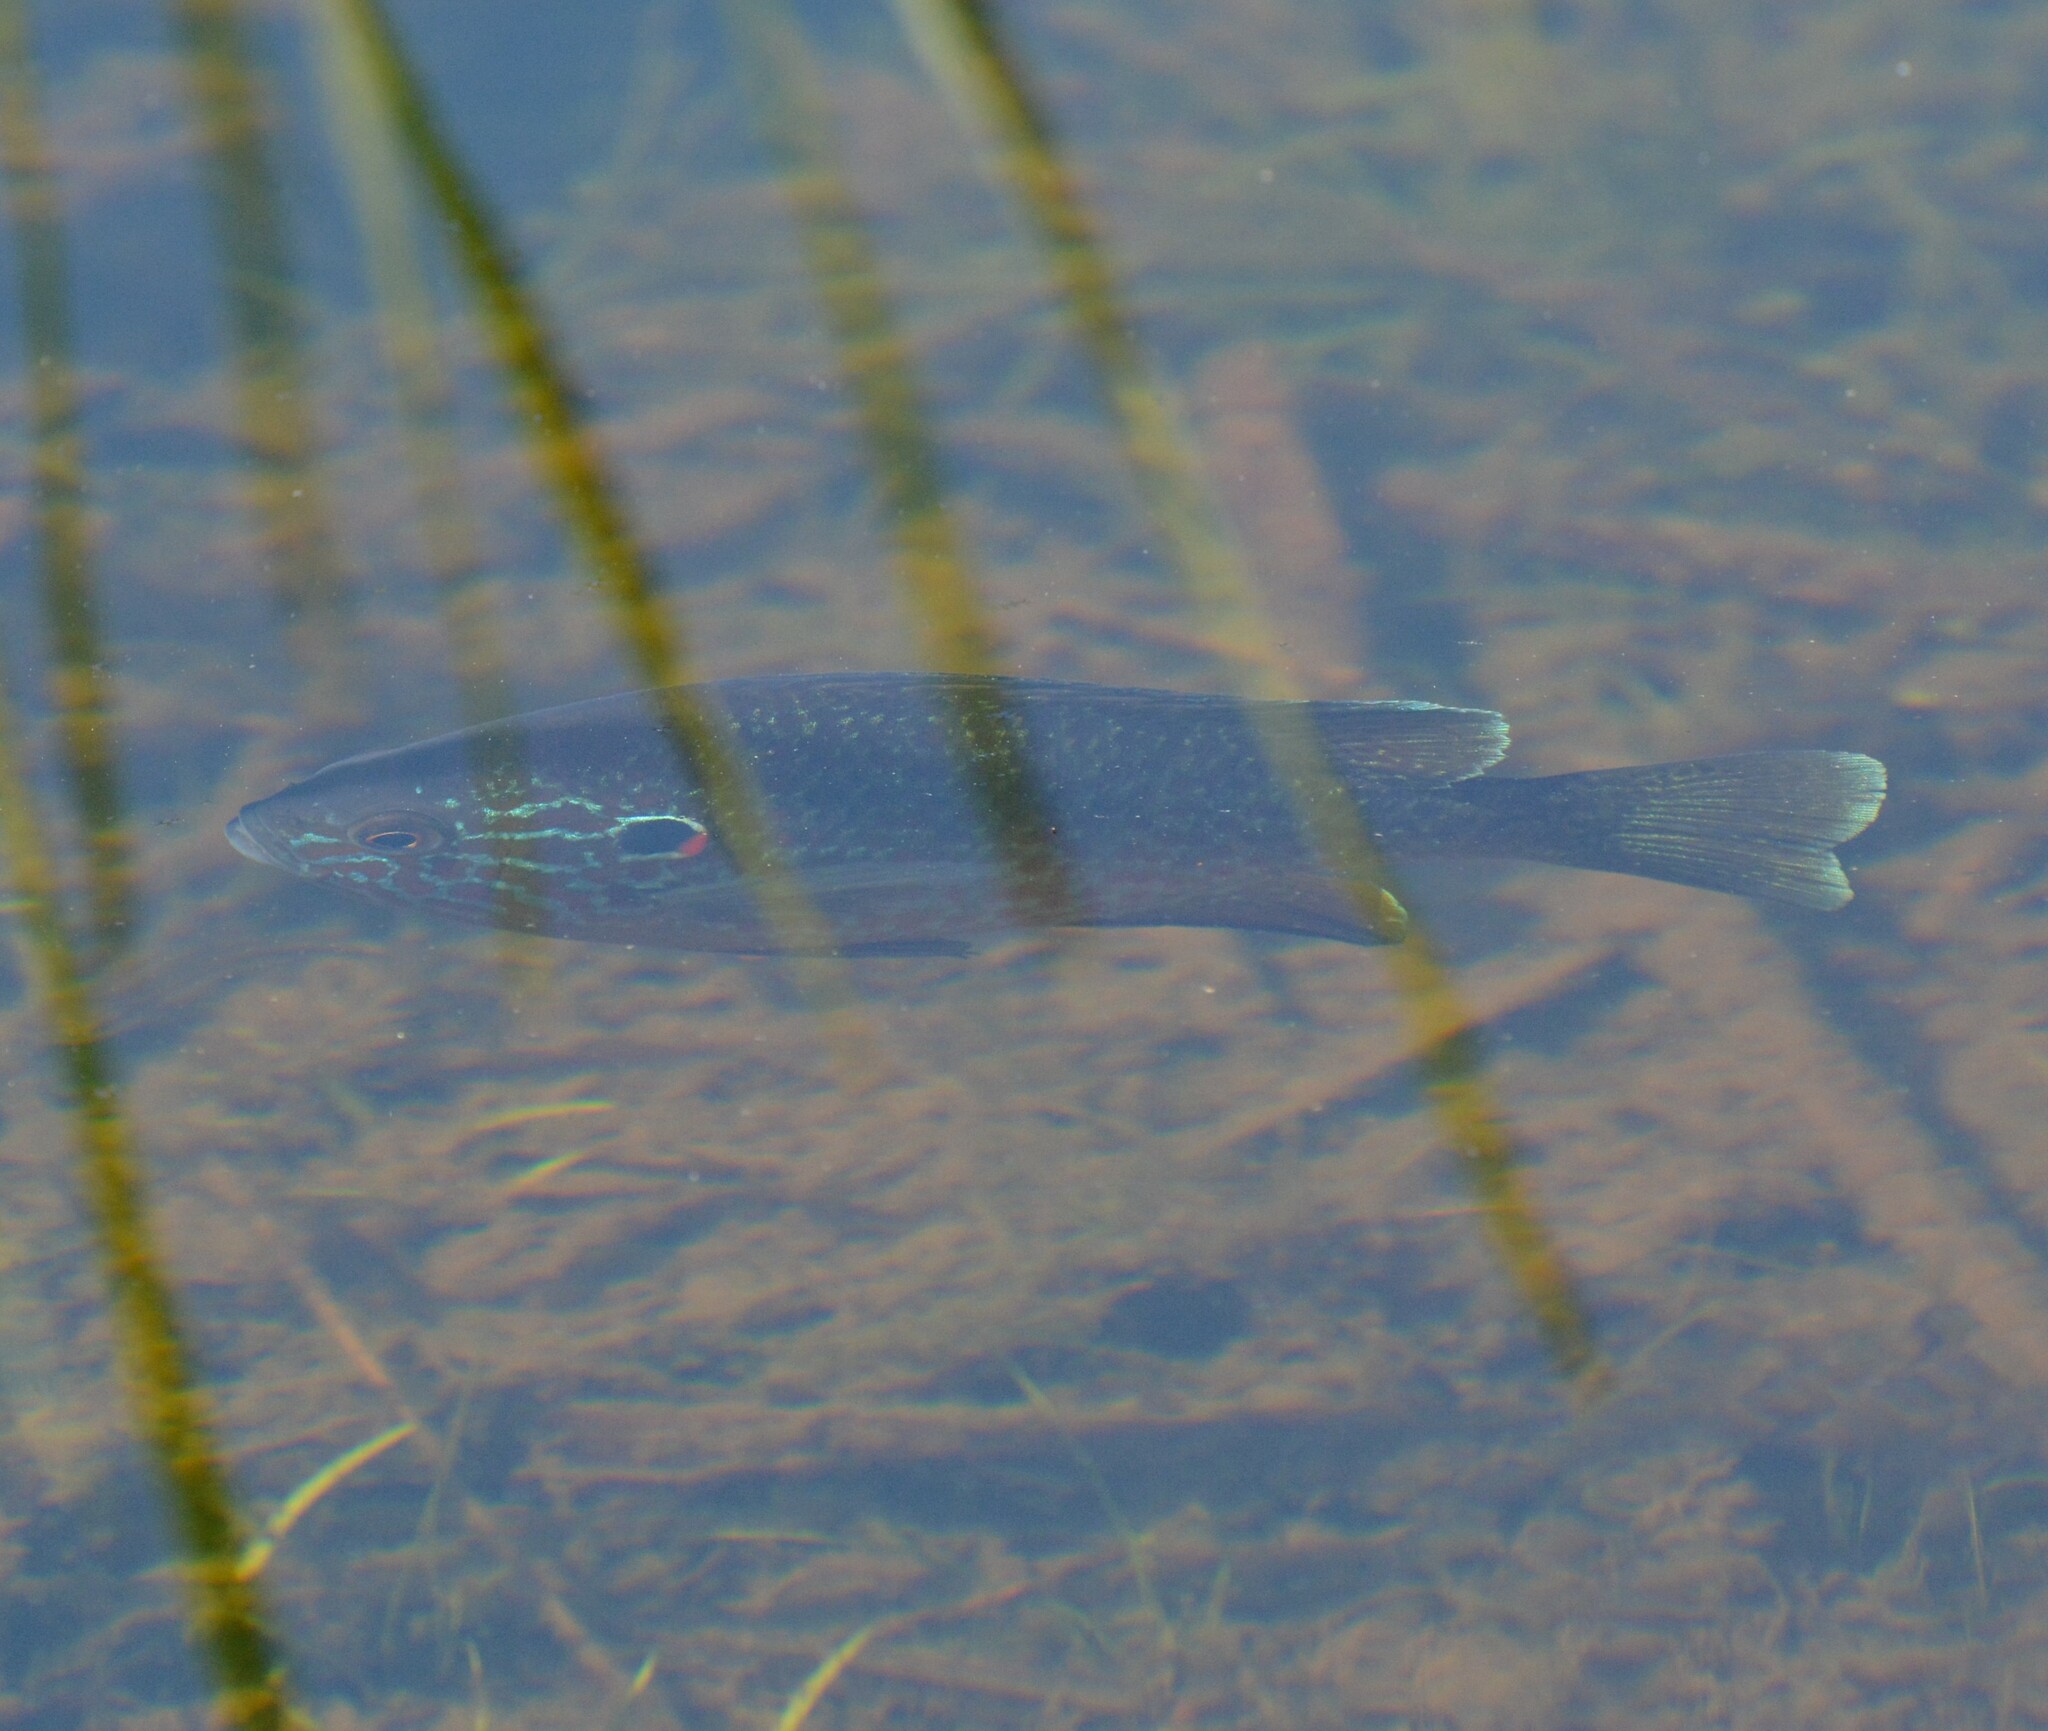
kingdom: Animalia
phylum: Chordata
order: Perciformes
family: Centrarchidae
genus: Lepomis
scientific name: Lepomis gibbosus
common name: Pumpkinseed
